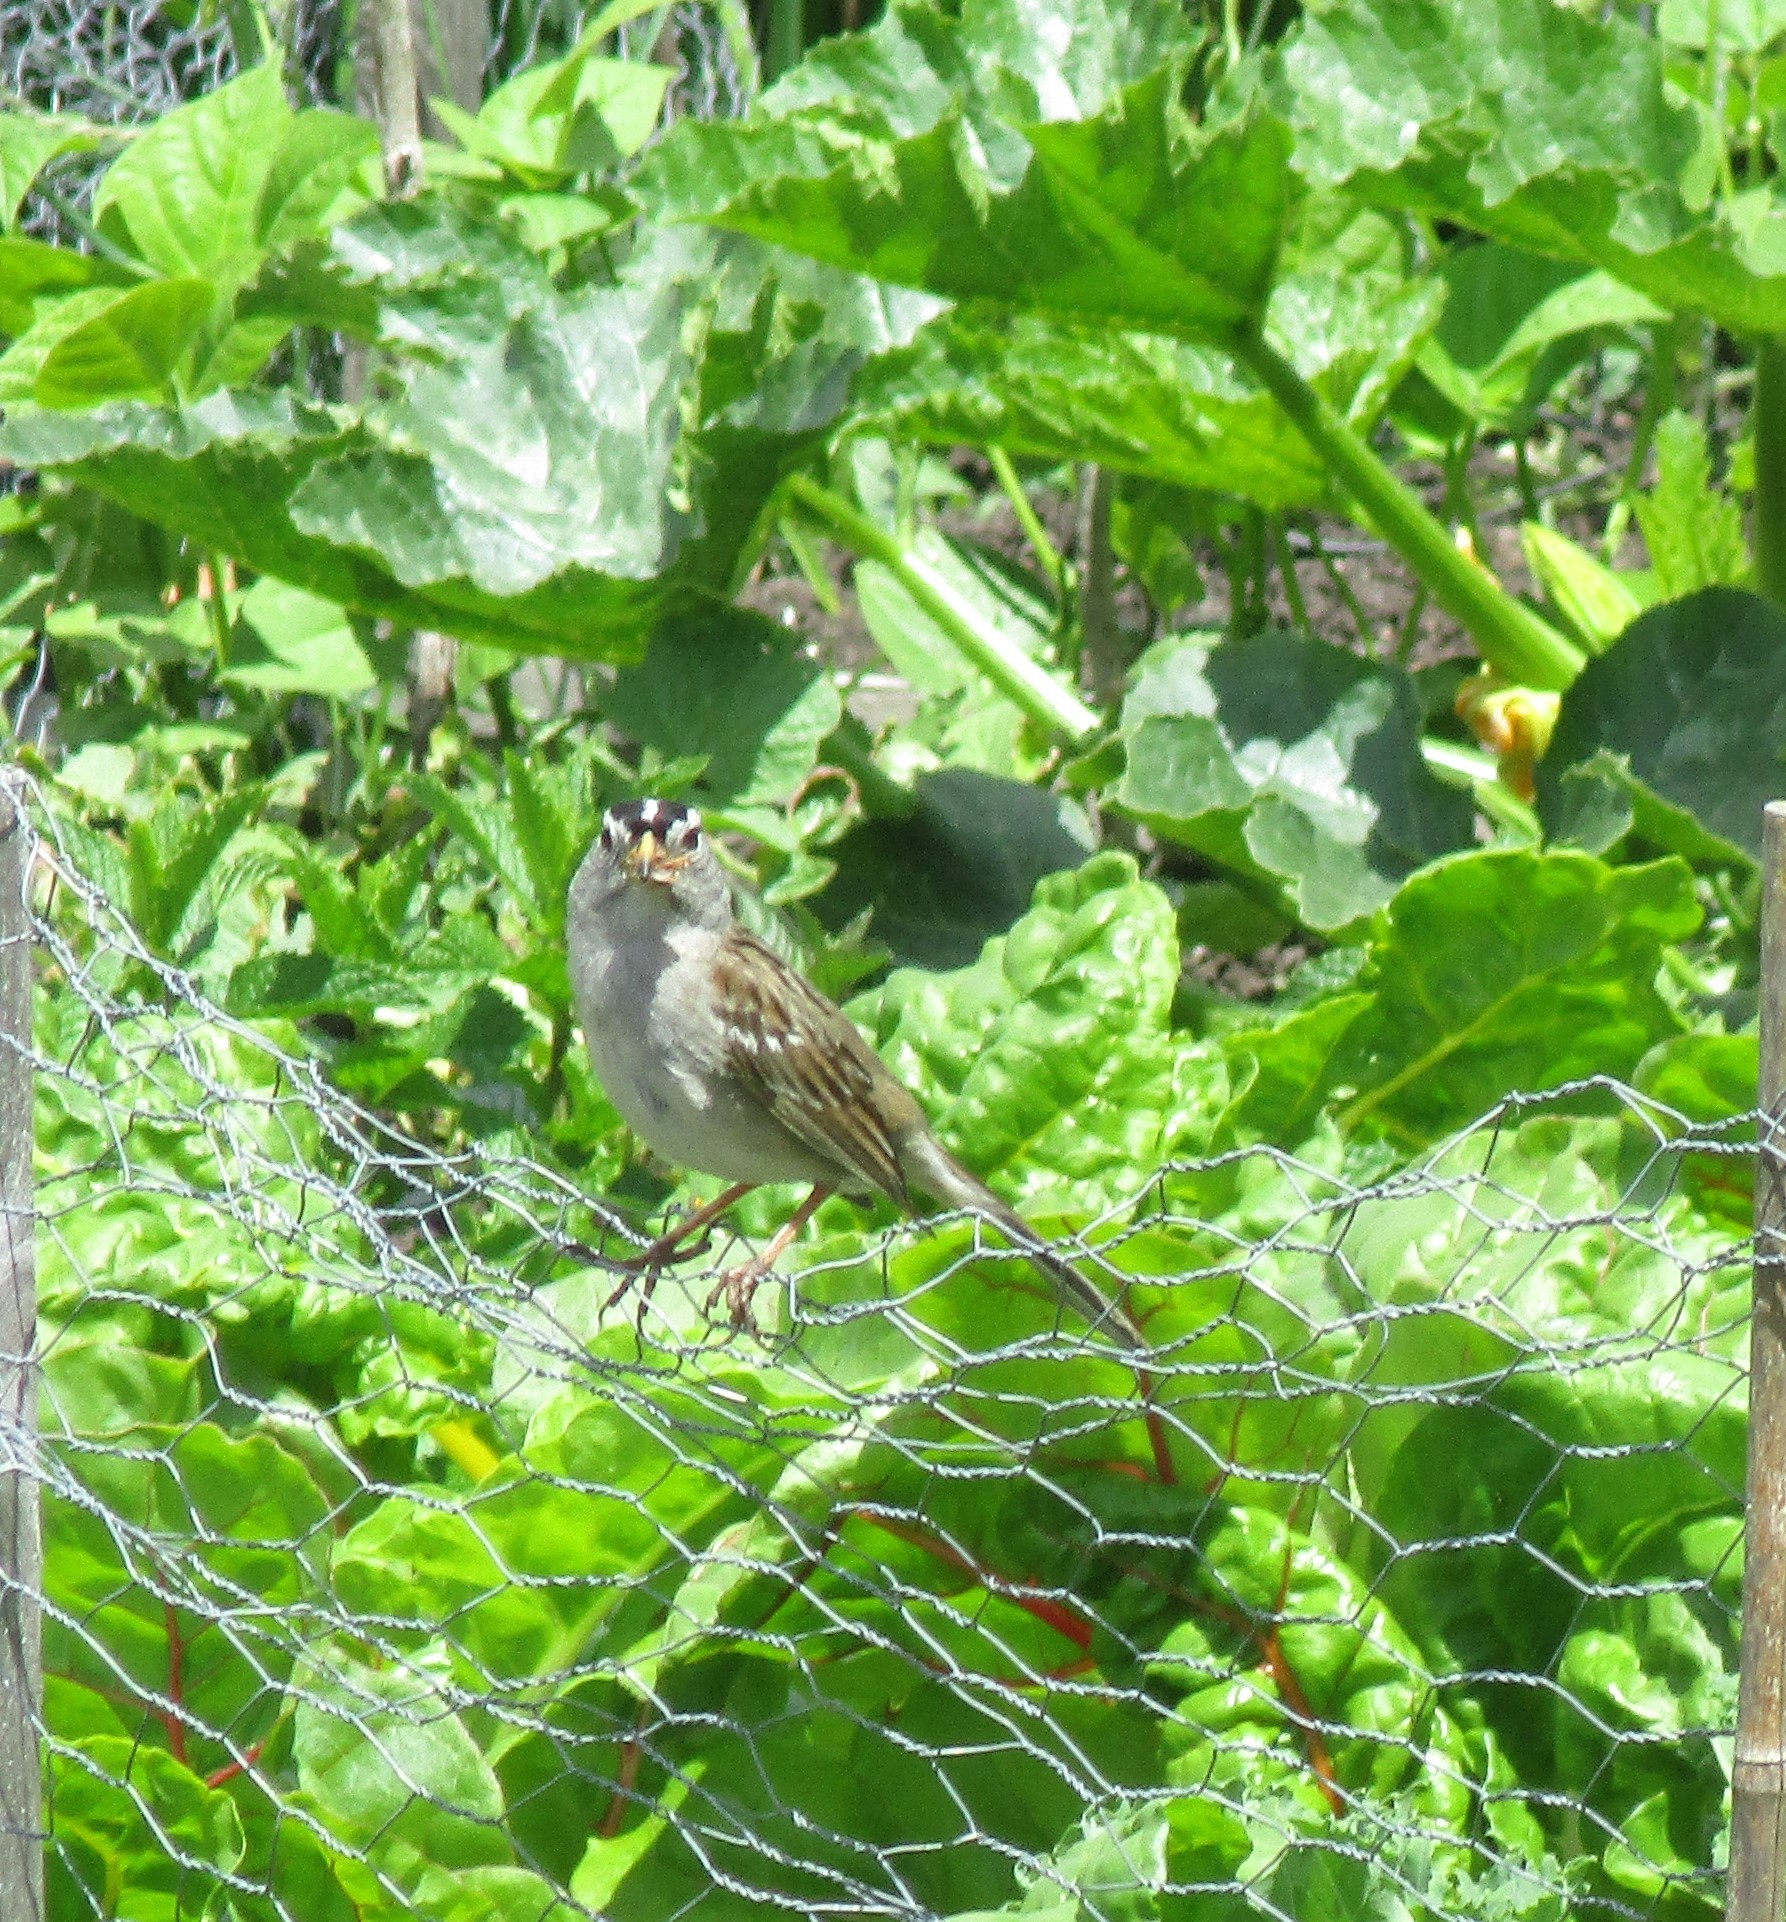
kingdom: Animalia
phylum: Chordata
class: Aves
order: Passeriformes
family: Passerellidae
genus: Zonotrichia
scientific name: Zonotrichia leucophrys
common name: White-crowned sparrow
